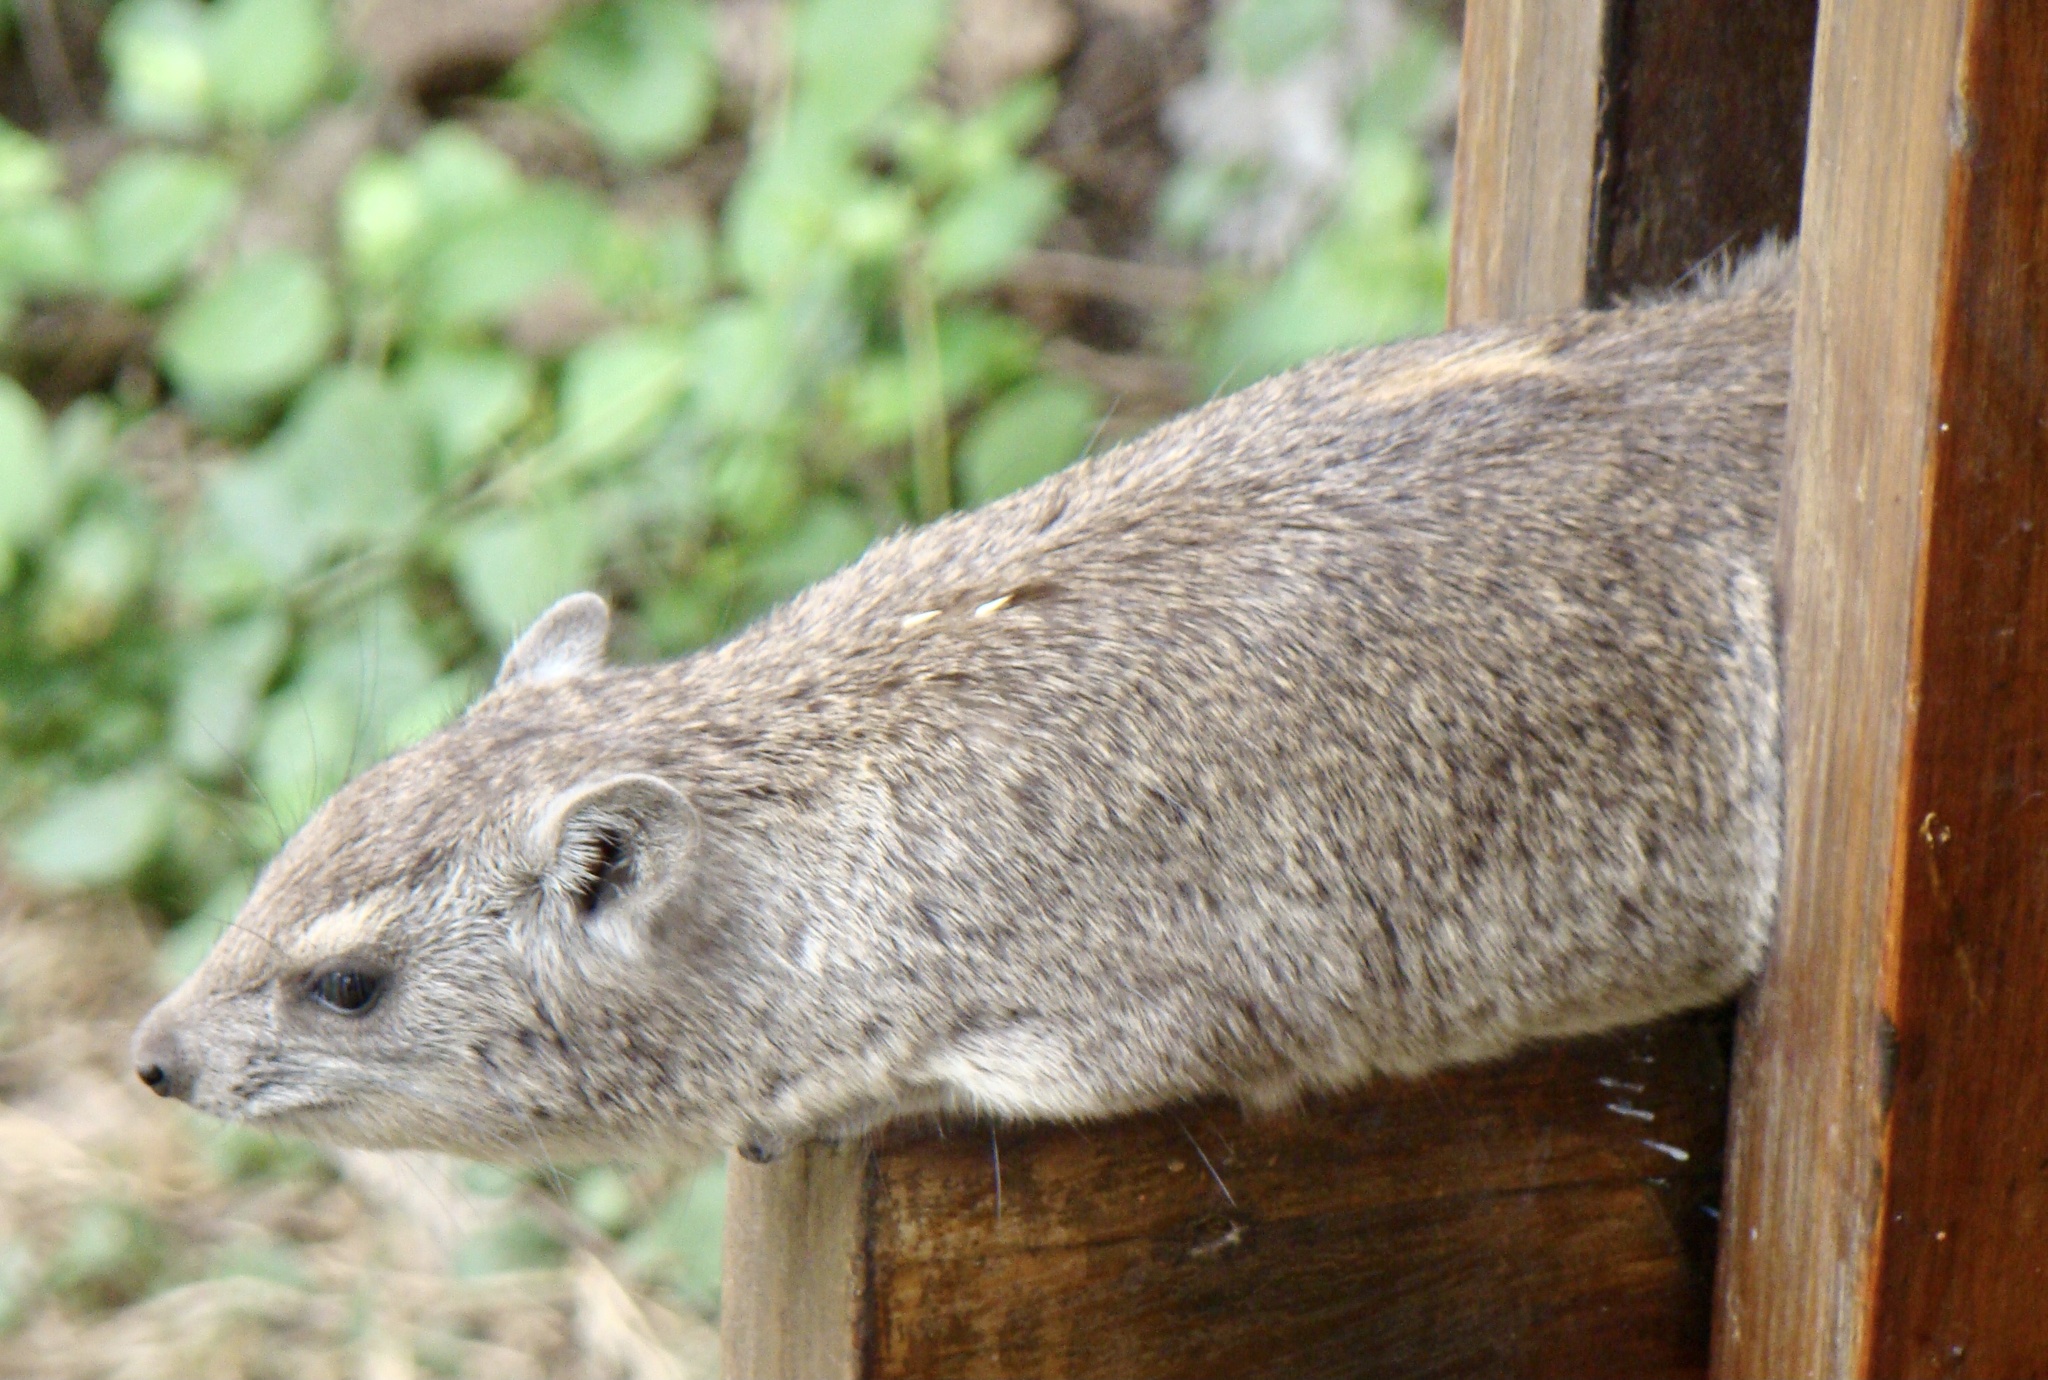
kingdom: Animalia
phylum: Chordata
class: Mammalia
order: Hyracoidea
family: Procaviidae
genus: Heterohyrax
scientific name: Heterohyrax brucei
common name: Bush hyrax
